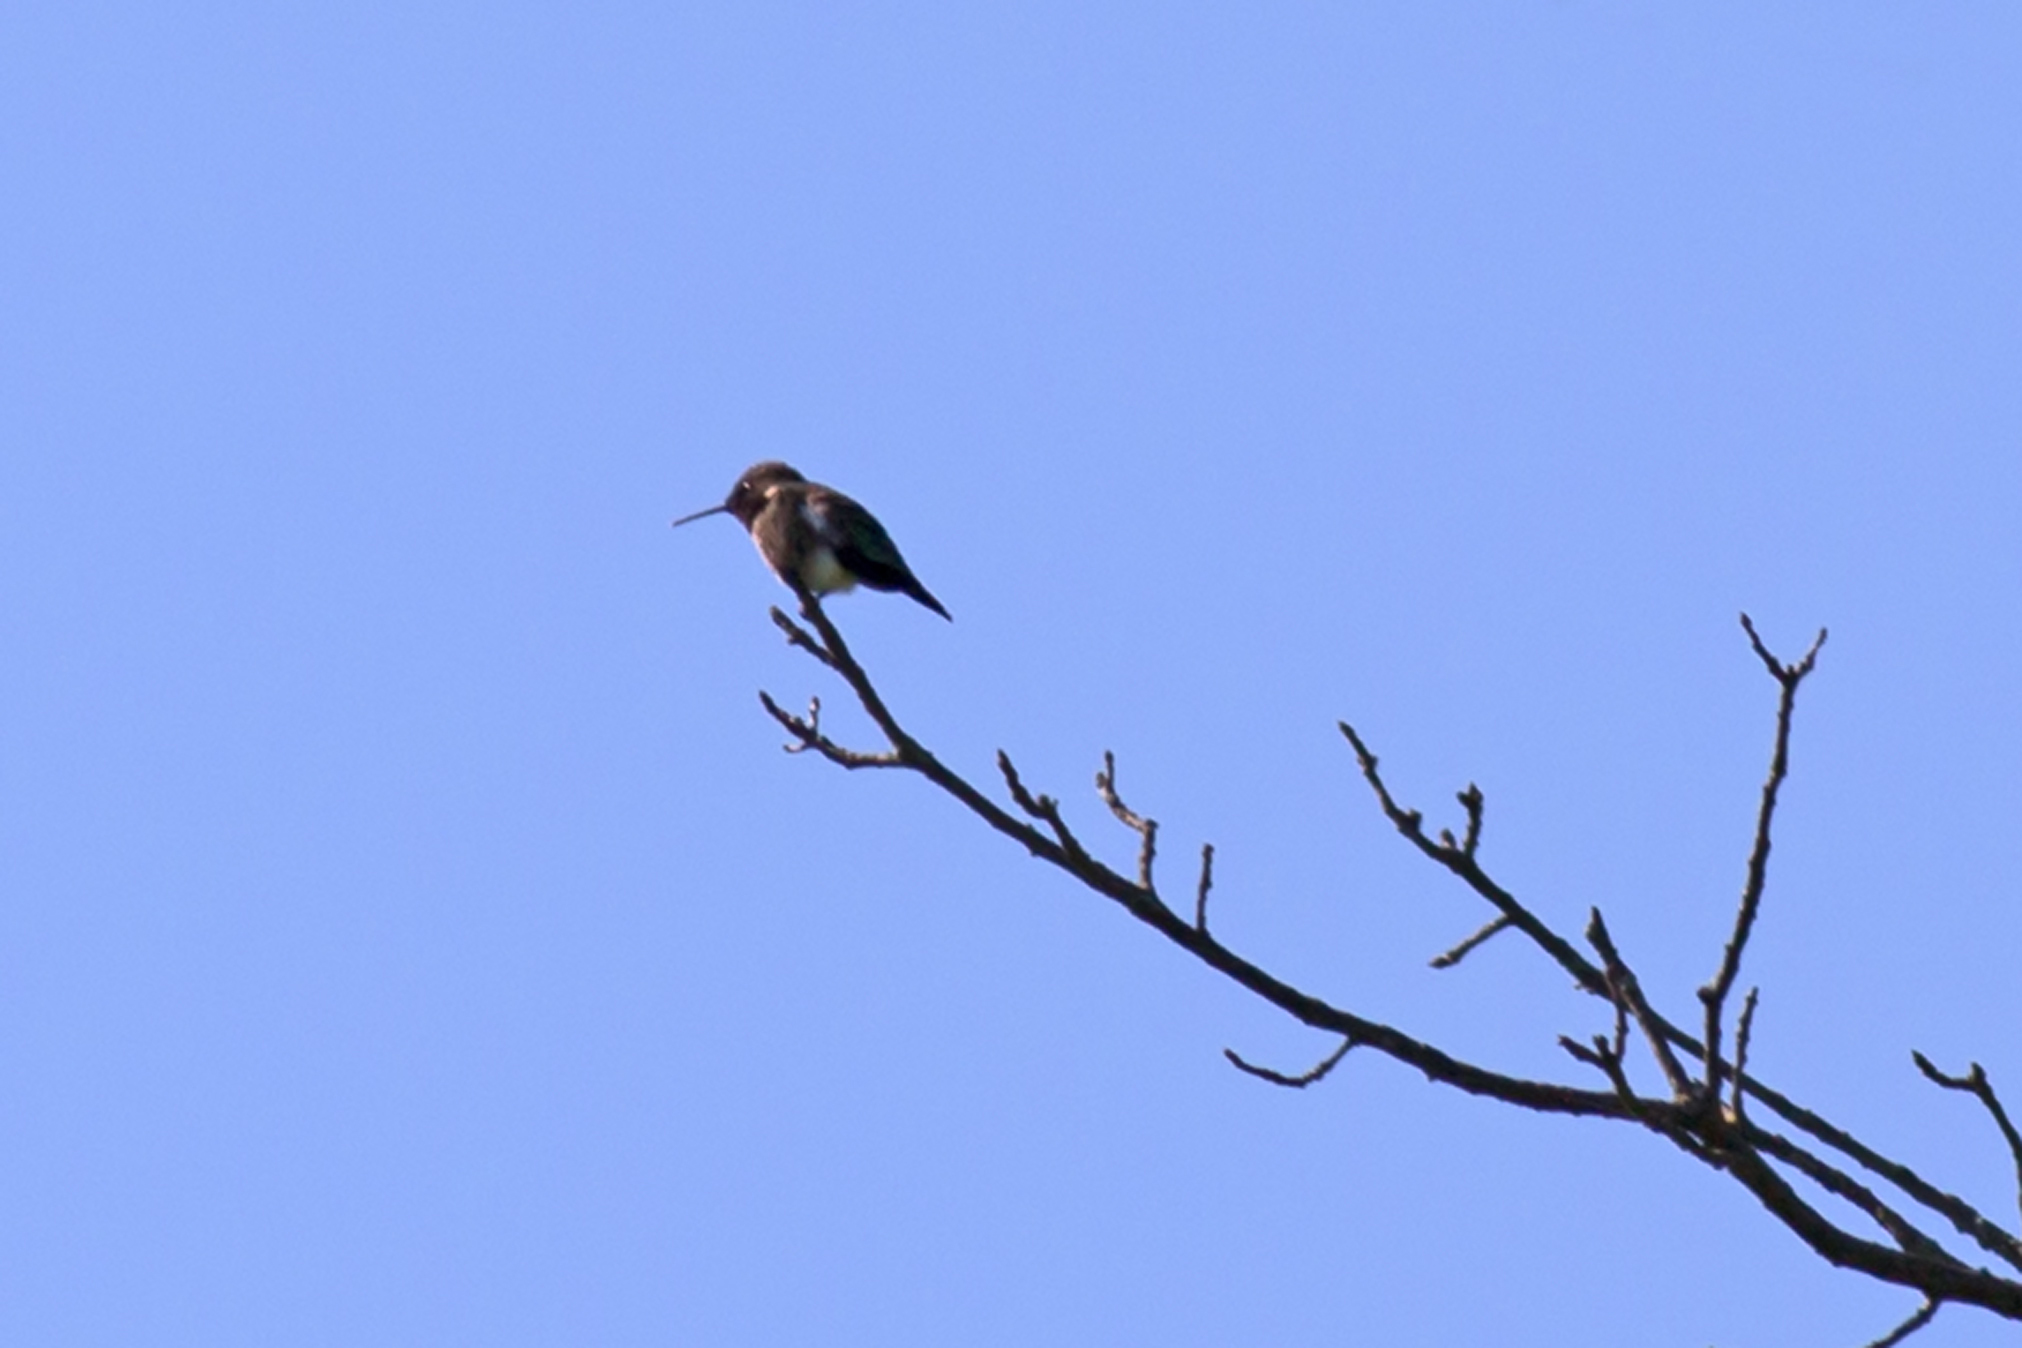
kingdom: Animalia
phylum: Chordata
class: Aves
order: Apodiformes
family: Trochilidae
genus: Archilochus
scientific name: Archilochus colubris
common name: Ruby-throated hummingbird
